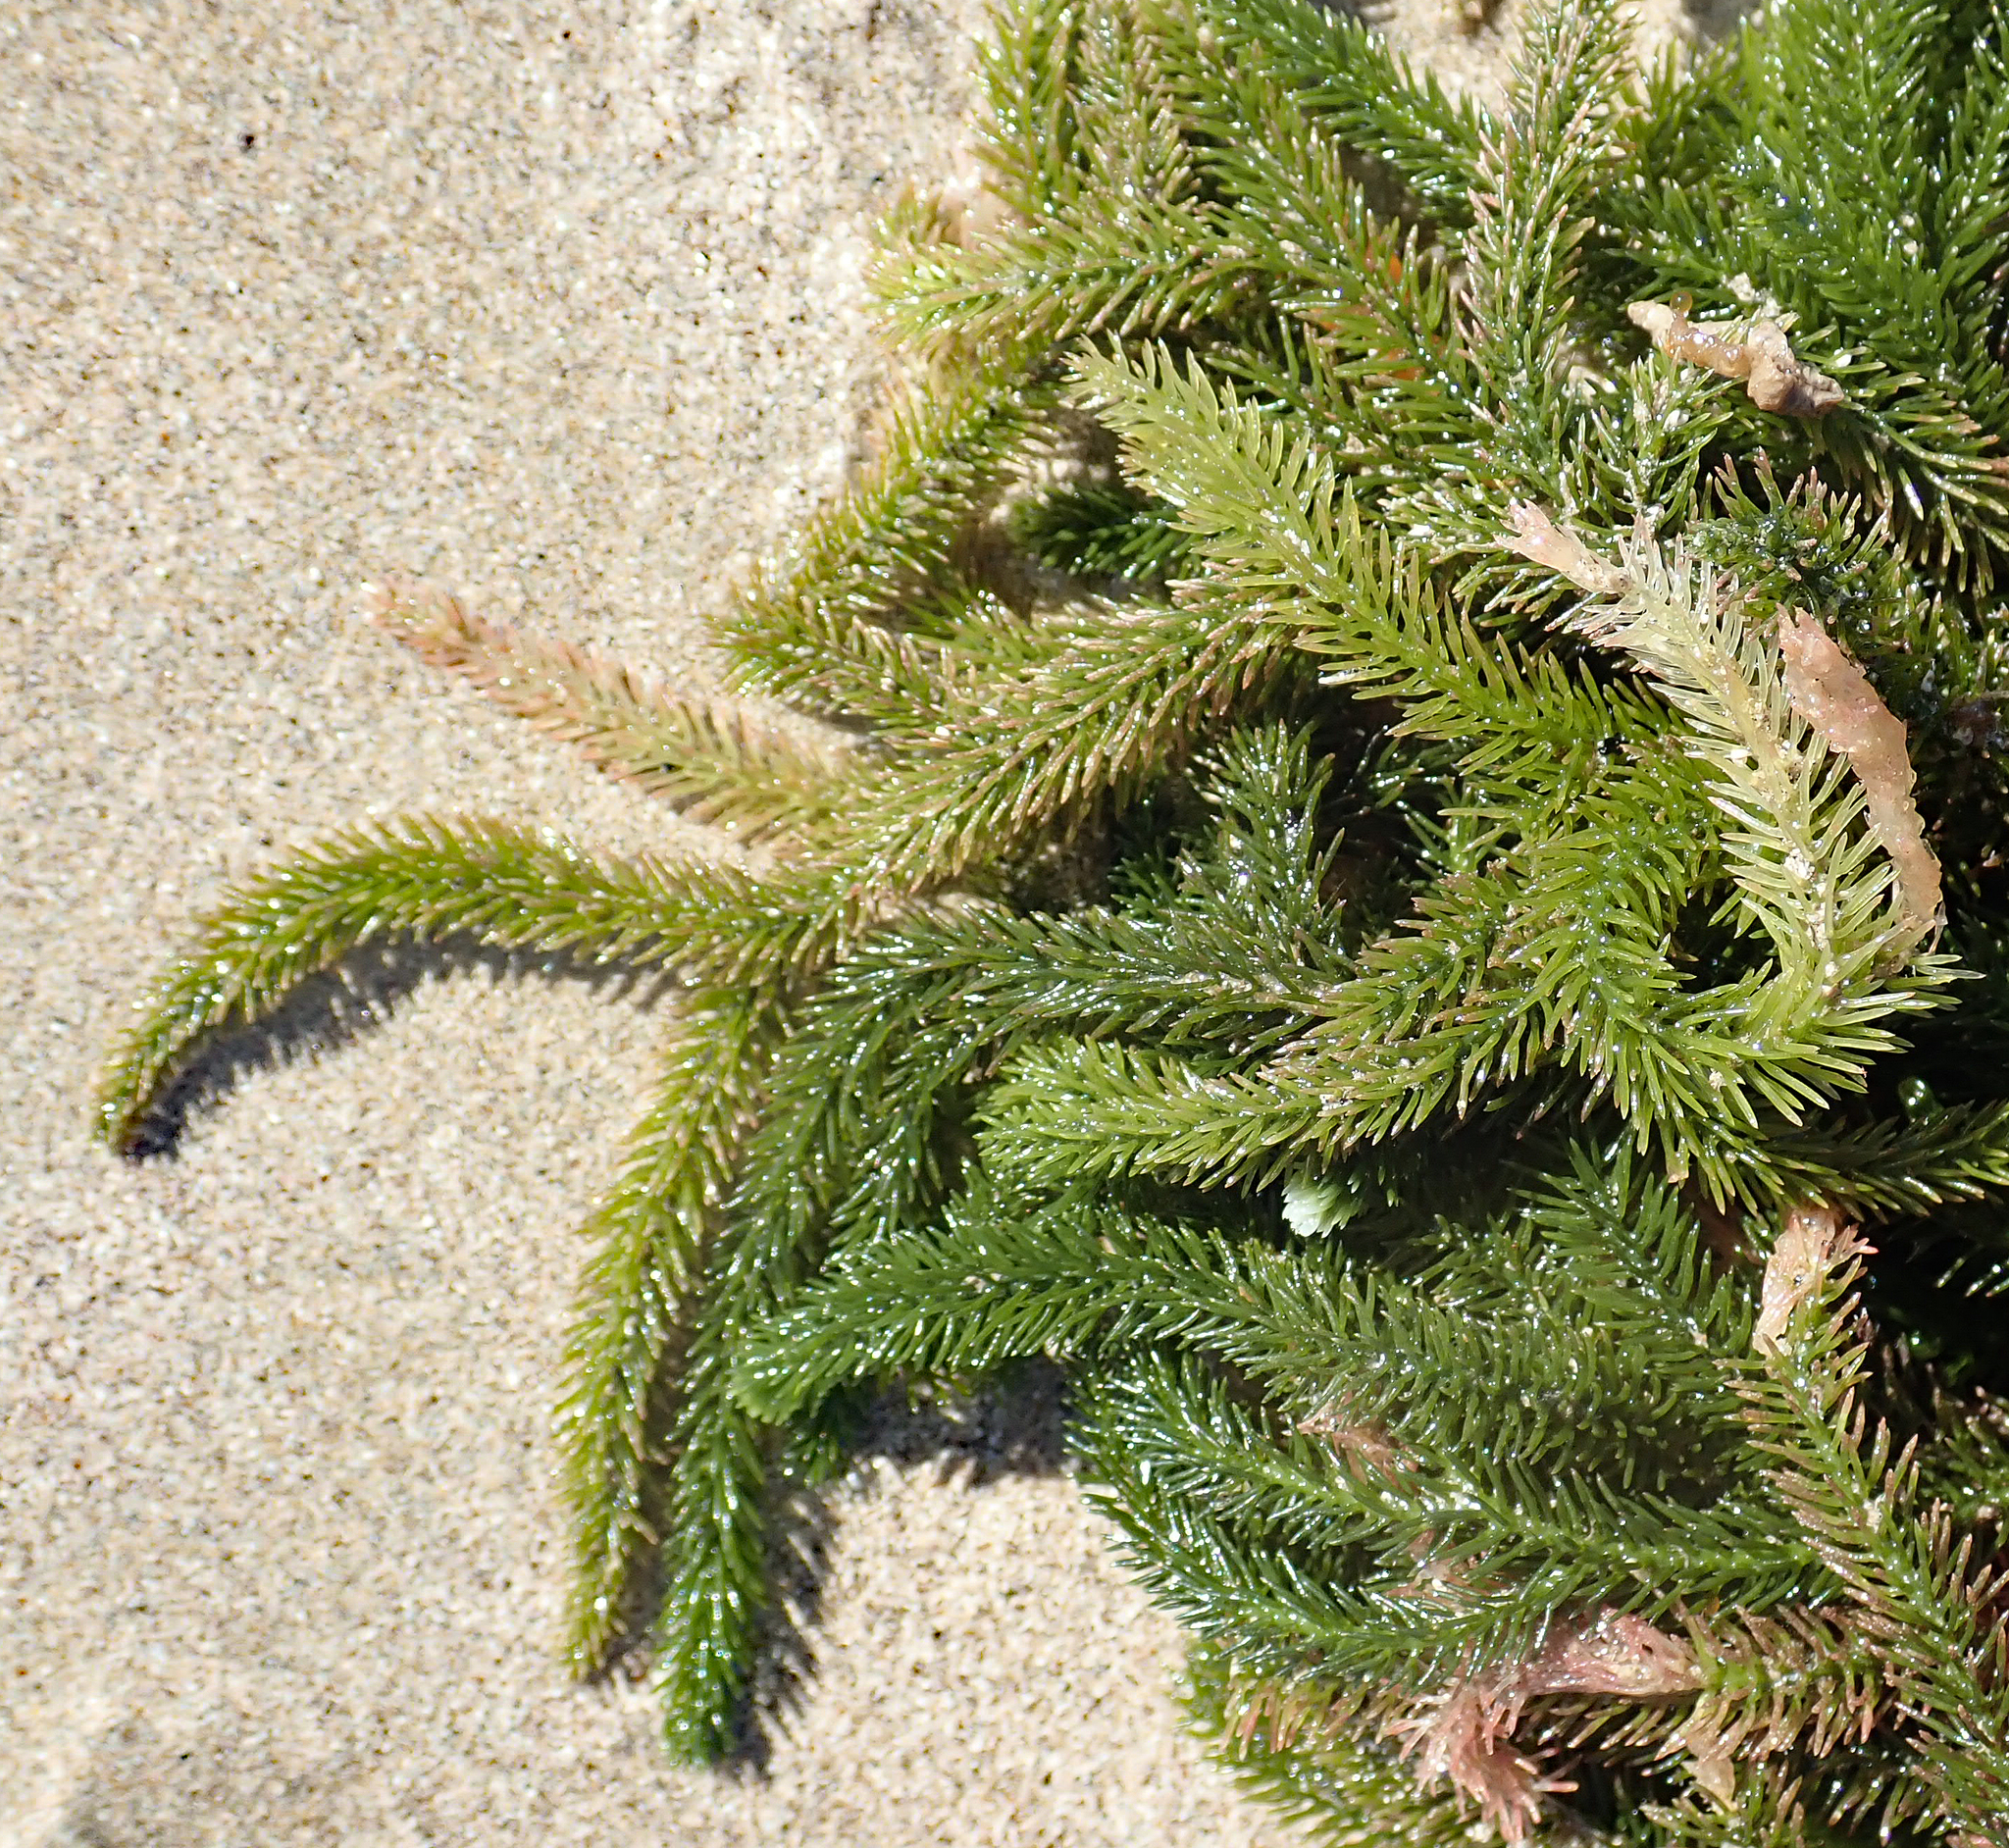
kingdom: Plantae
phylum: Chlorophyta
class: Ulvophyceae
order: Bryopsidales
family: Caulerpaceae
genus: Caulerpa
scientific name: Caulerpa flexilis
